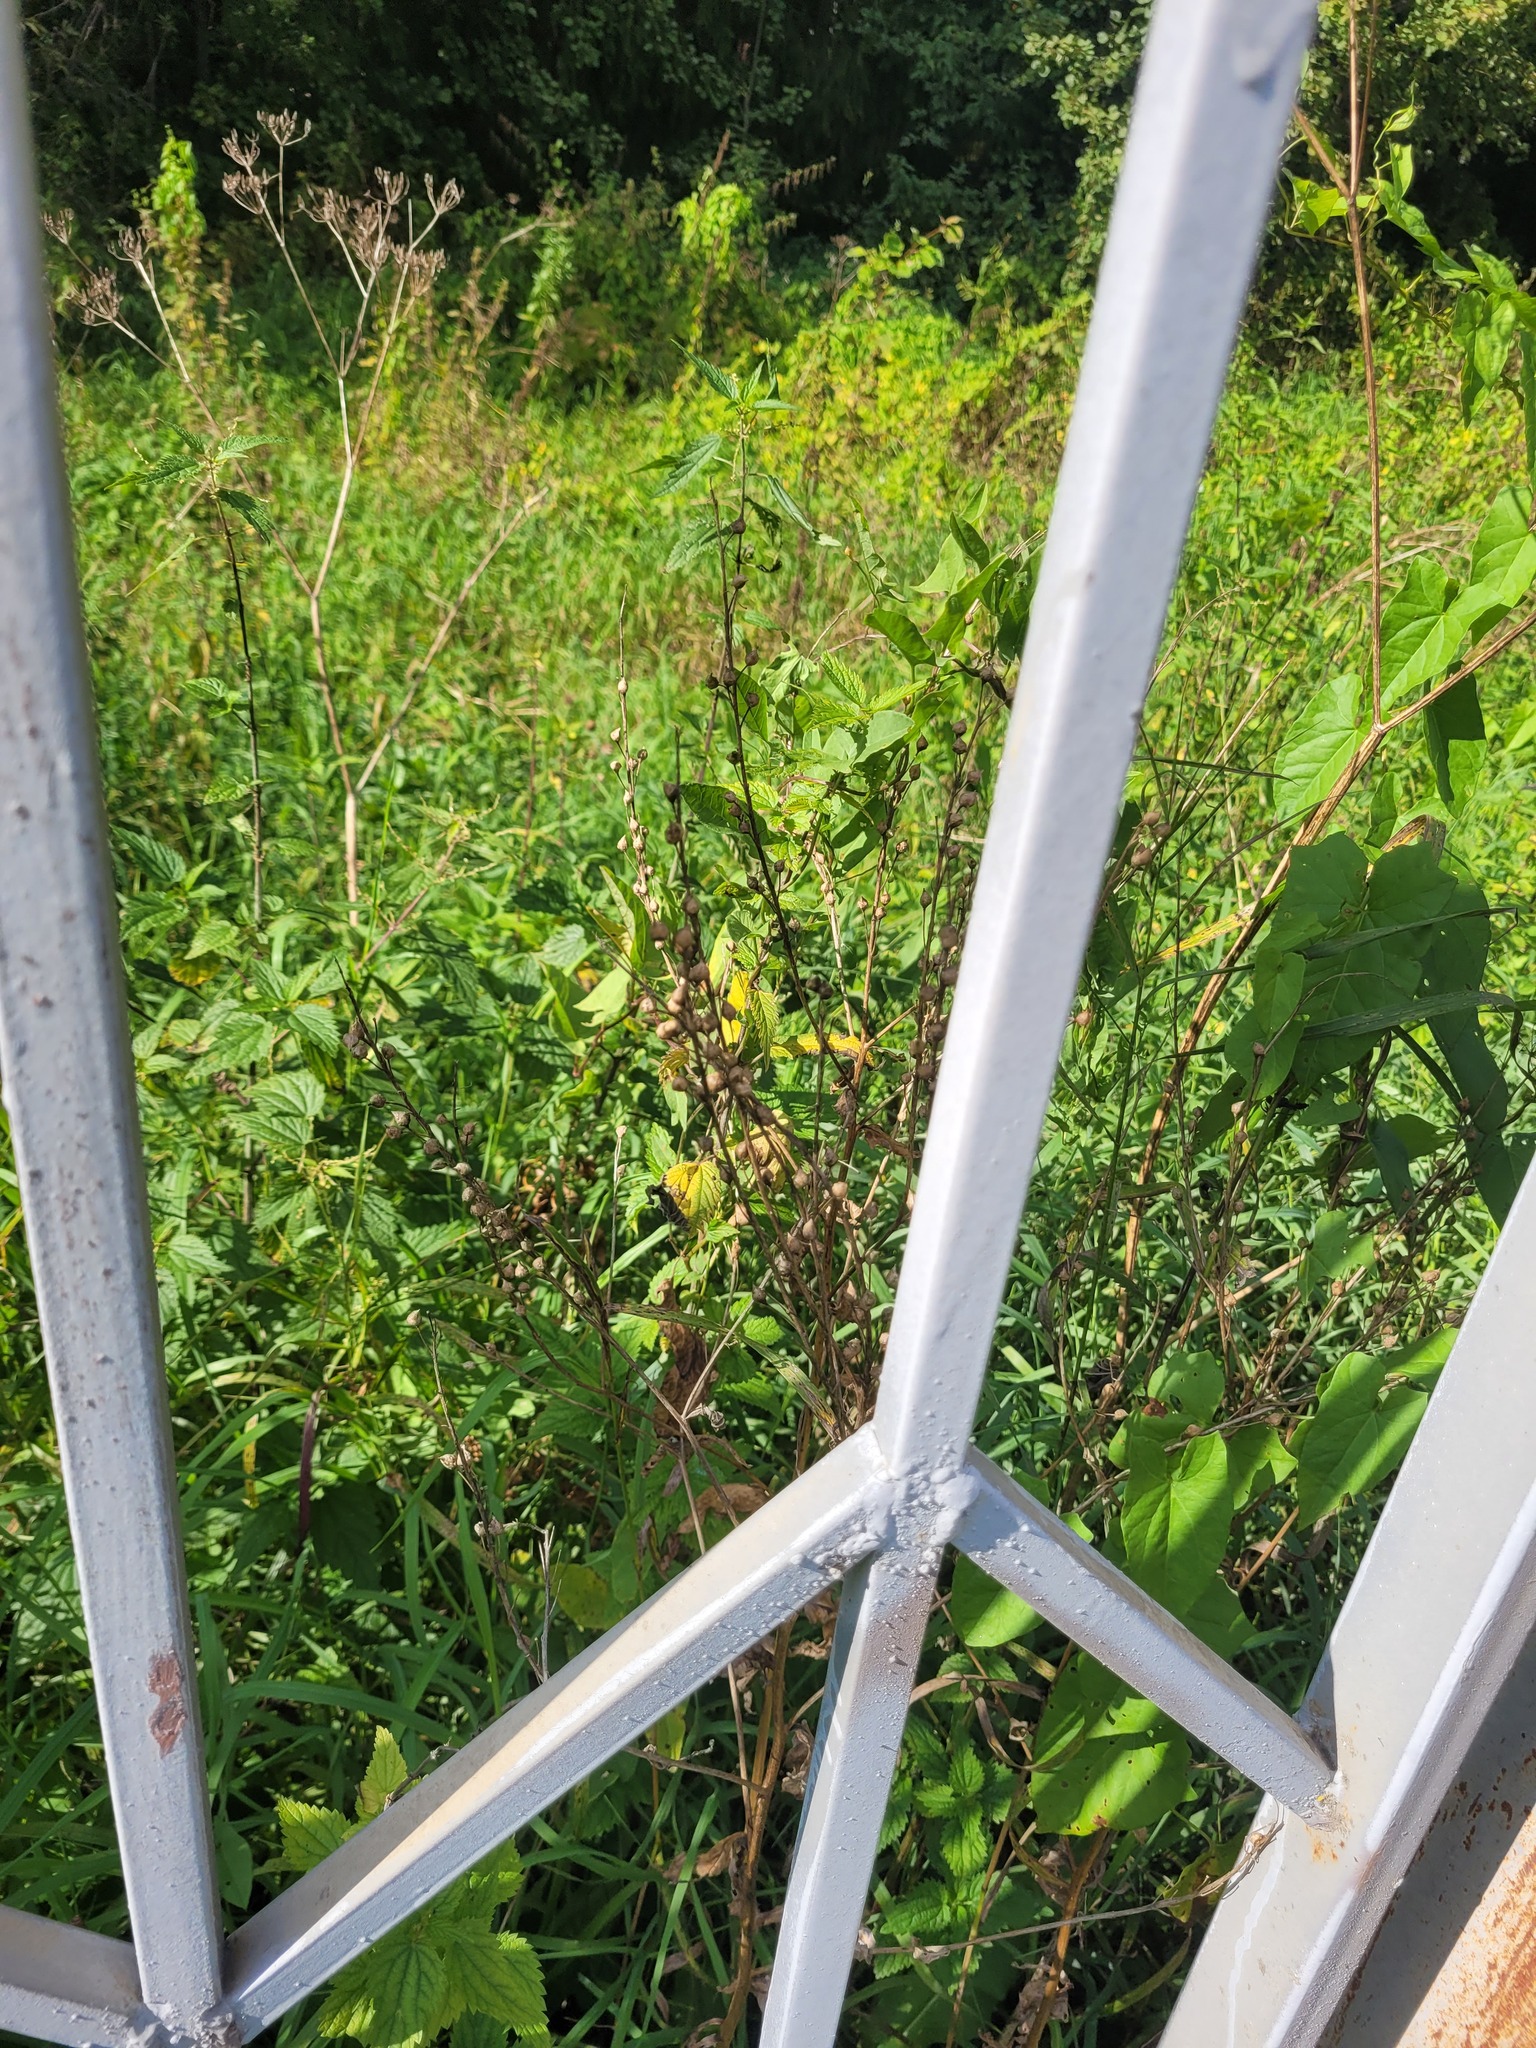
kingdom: Plantae
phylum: Tracheophyta
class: Magnoliopsida
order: Brassicales
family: Brassicaceae
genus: Bunias
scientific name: Bunias orientalis
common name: Warty-cabbage
